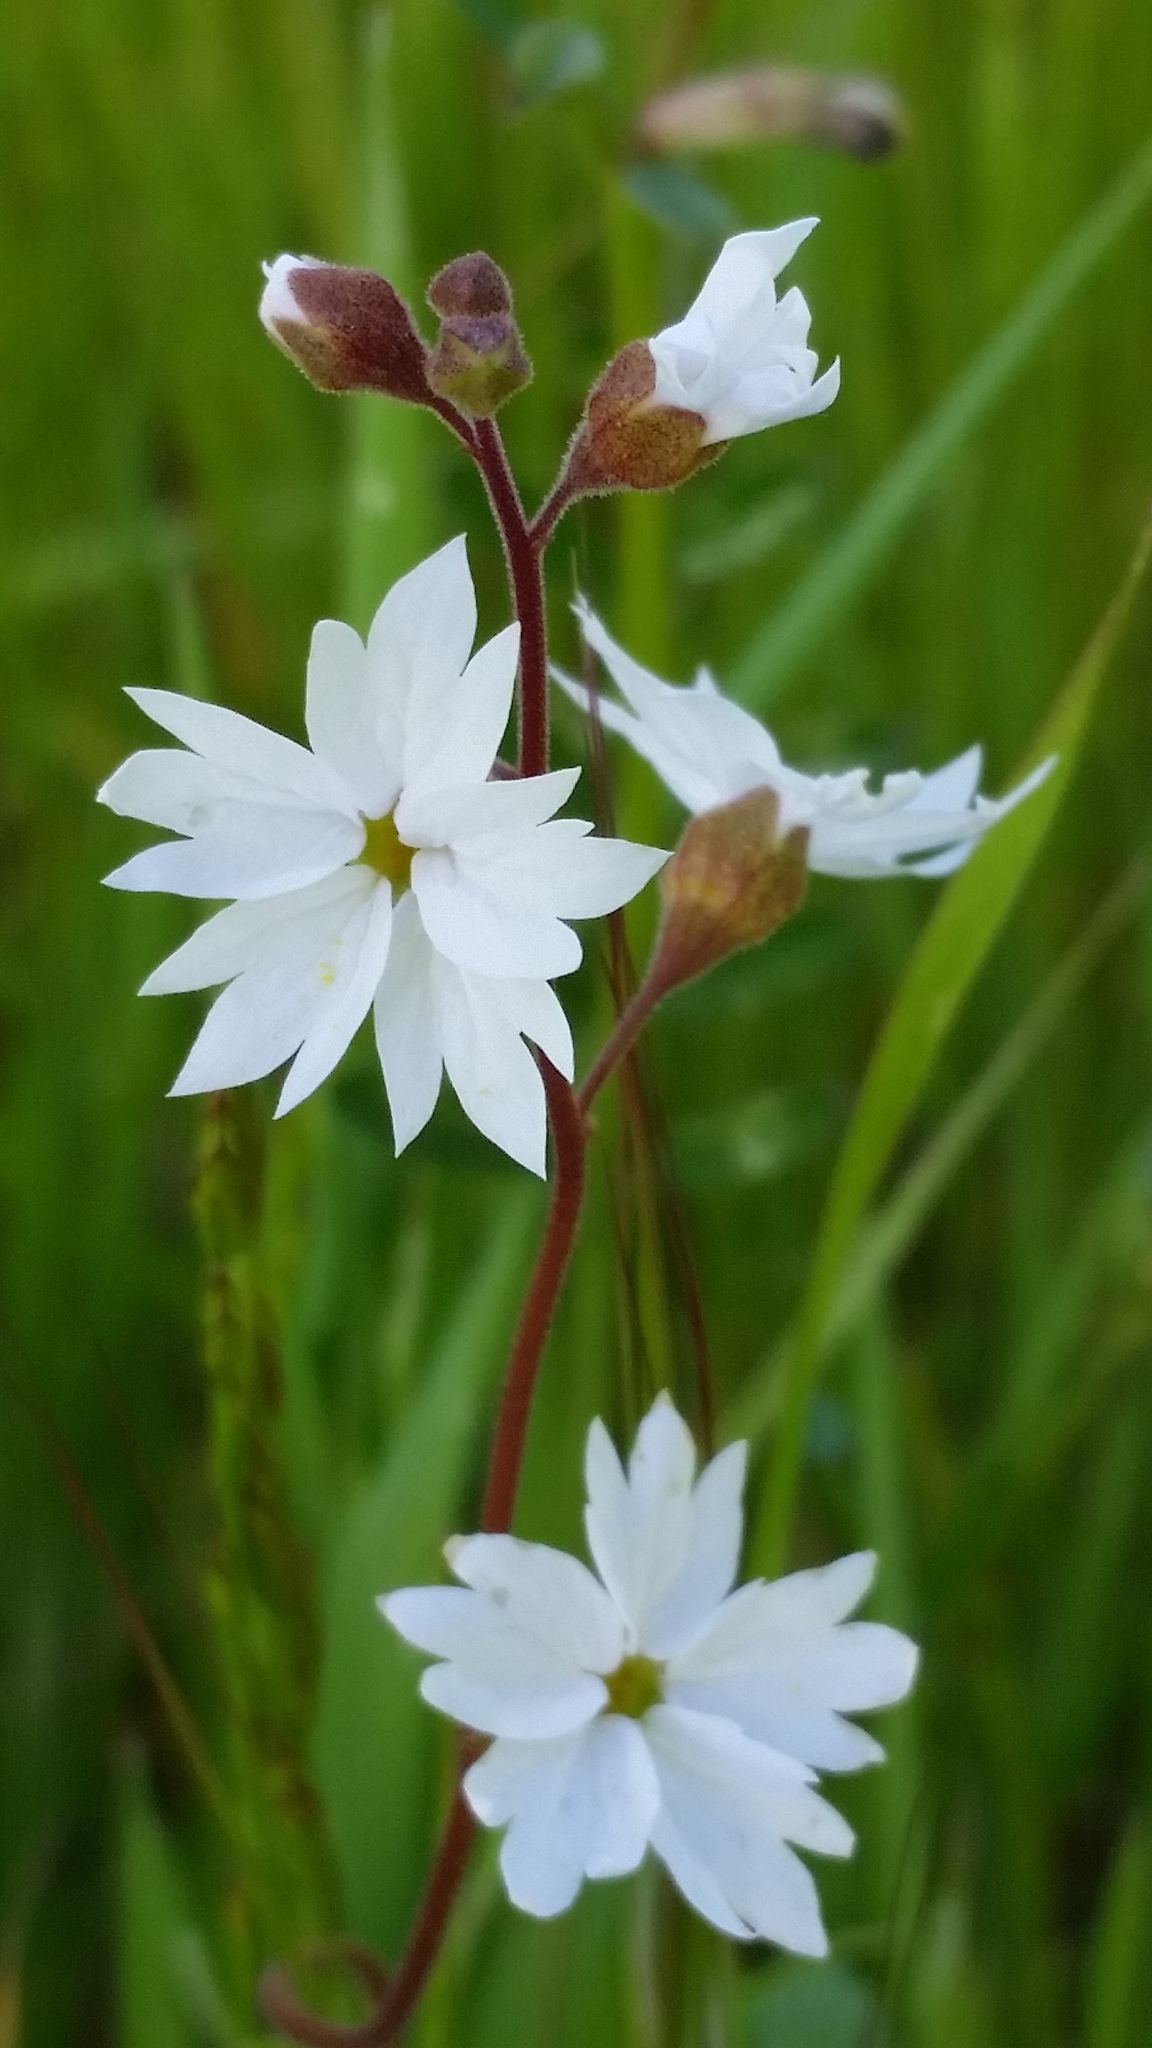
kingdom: Plantae
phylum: Tracheophyta
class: Magnoliopsida
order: Saxifragales
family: Saxifragaceae
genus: Lithophragma
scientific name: Lithophragma affine
